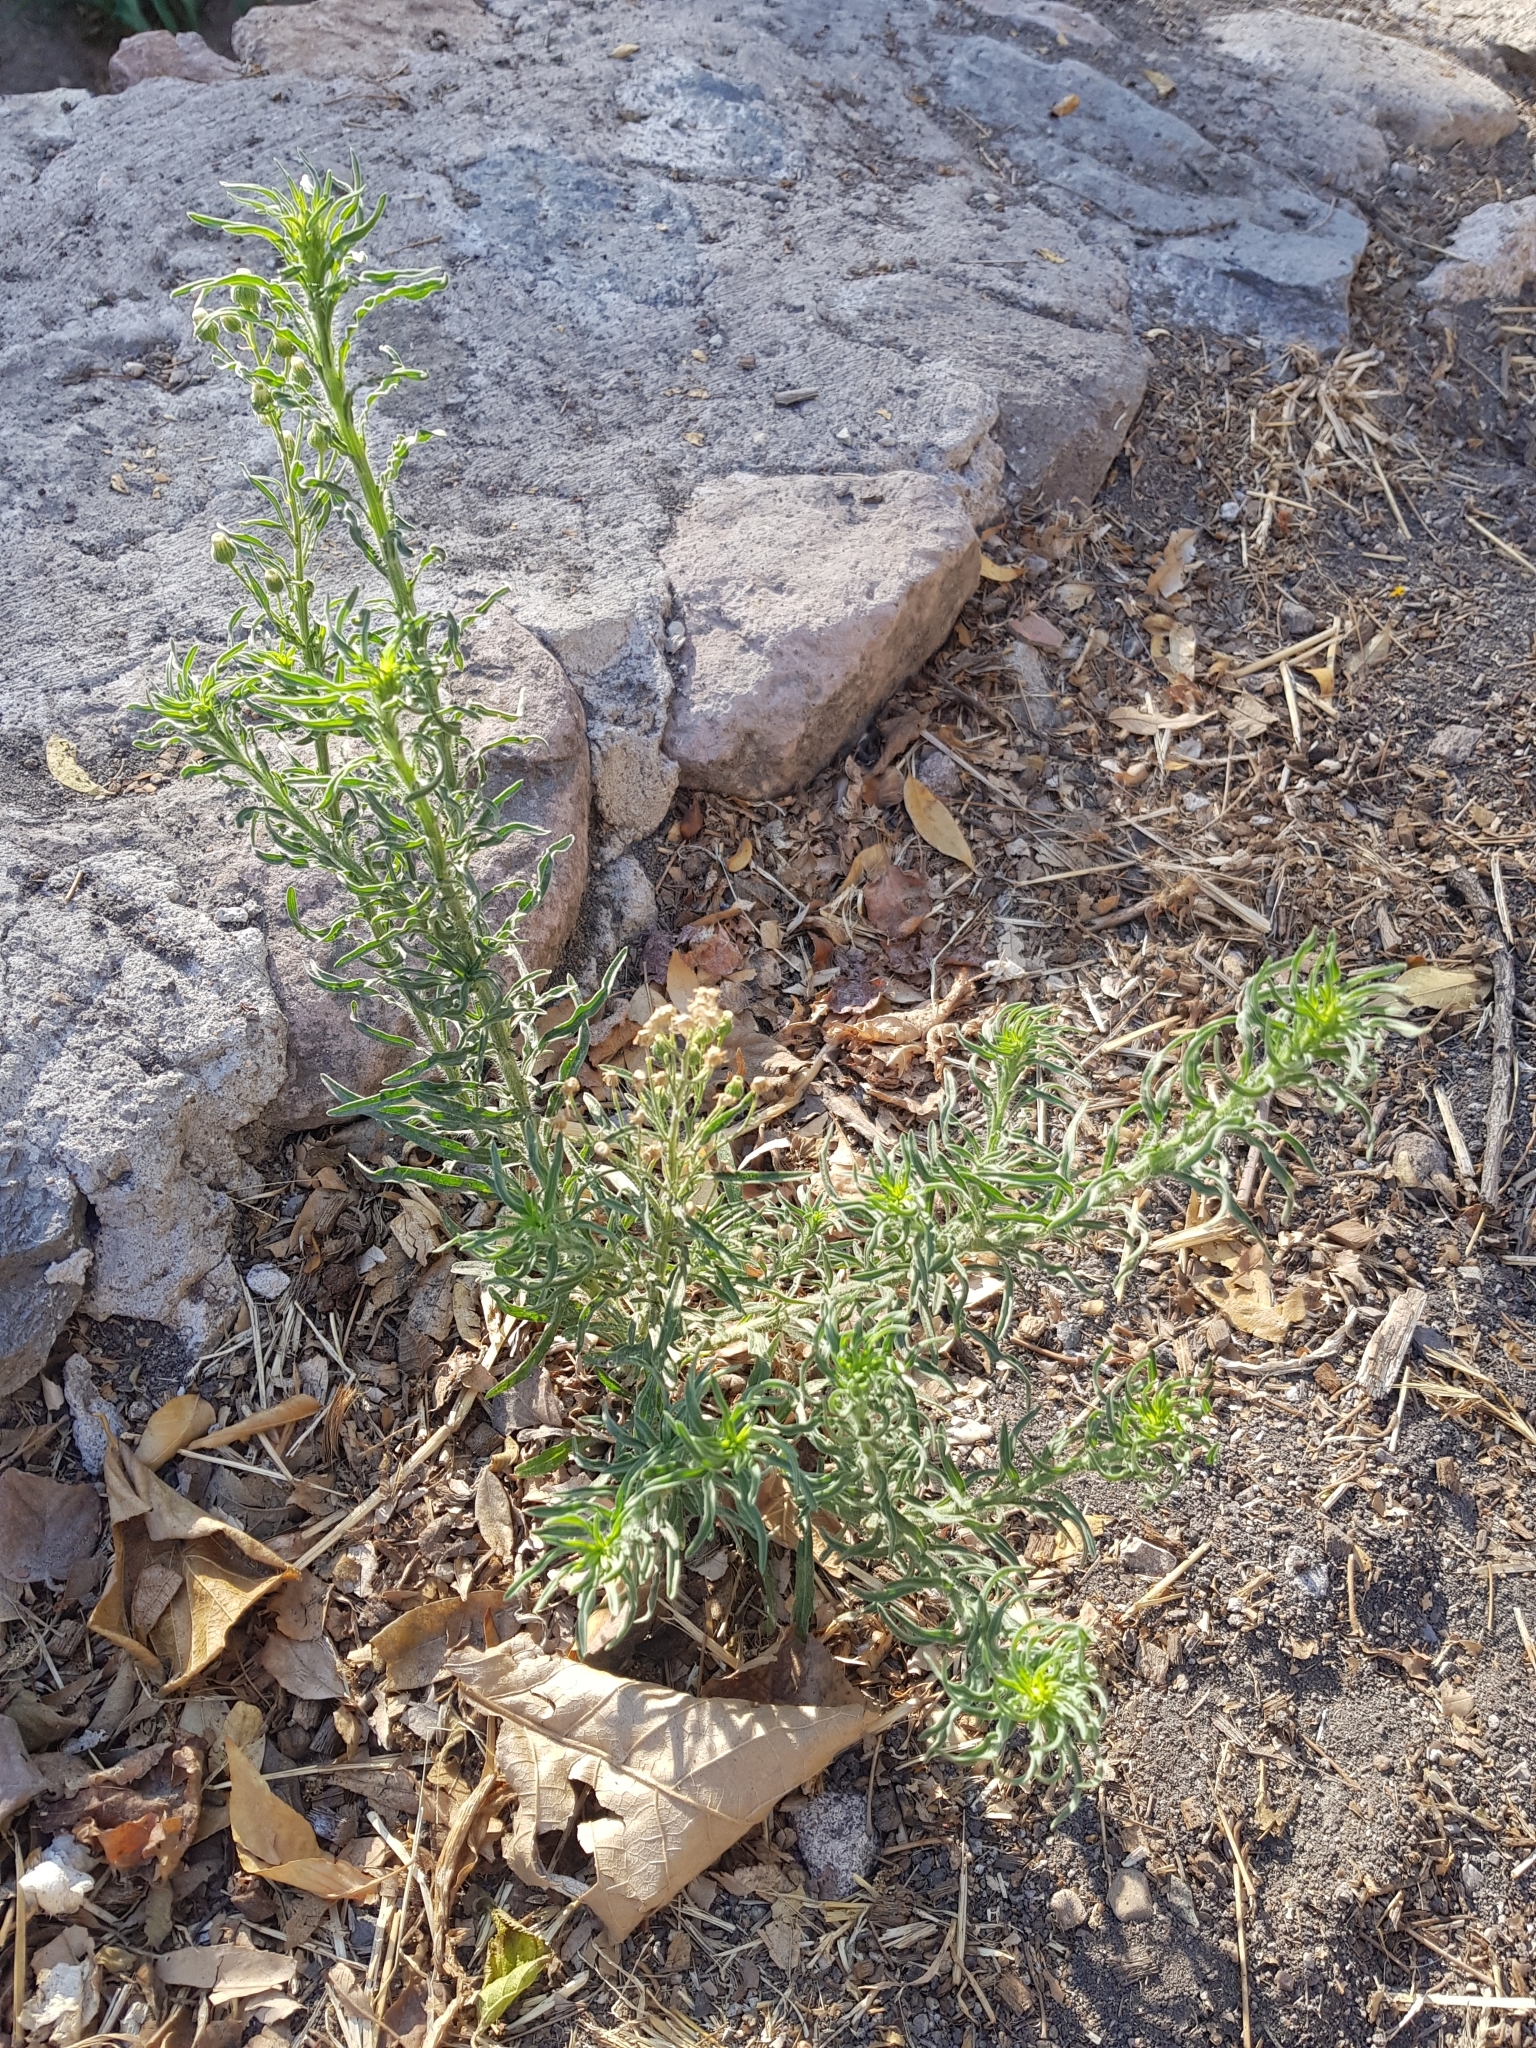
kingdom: Plantae
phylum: Tracheophyta
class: Magnoliopsida
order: Asterales
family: Asteraceae
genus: Erigeron
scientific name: Erigeron canadensis
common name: Canadian fleabane
